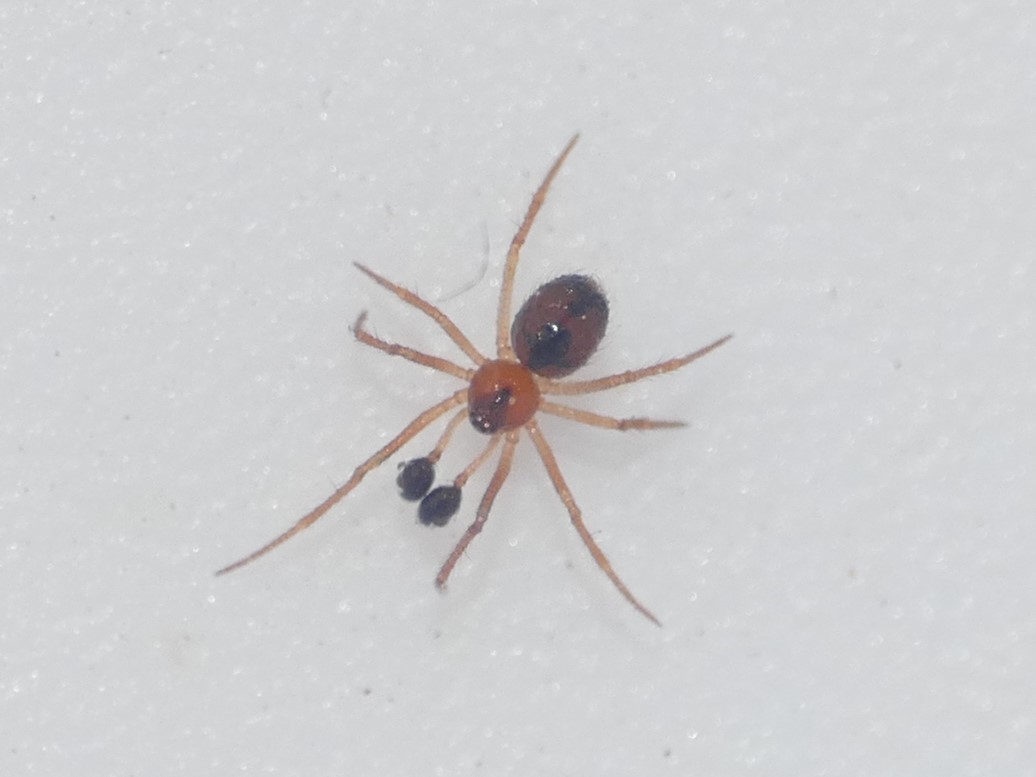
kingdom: Animalia
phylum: Arthropoda
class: Arachnida
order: Araneae
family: Theridiidae
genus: Anatolidion
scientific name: Anatolidion gentile
